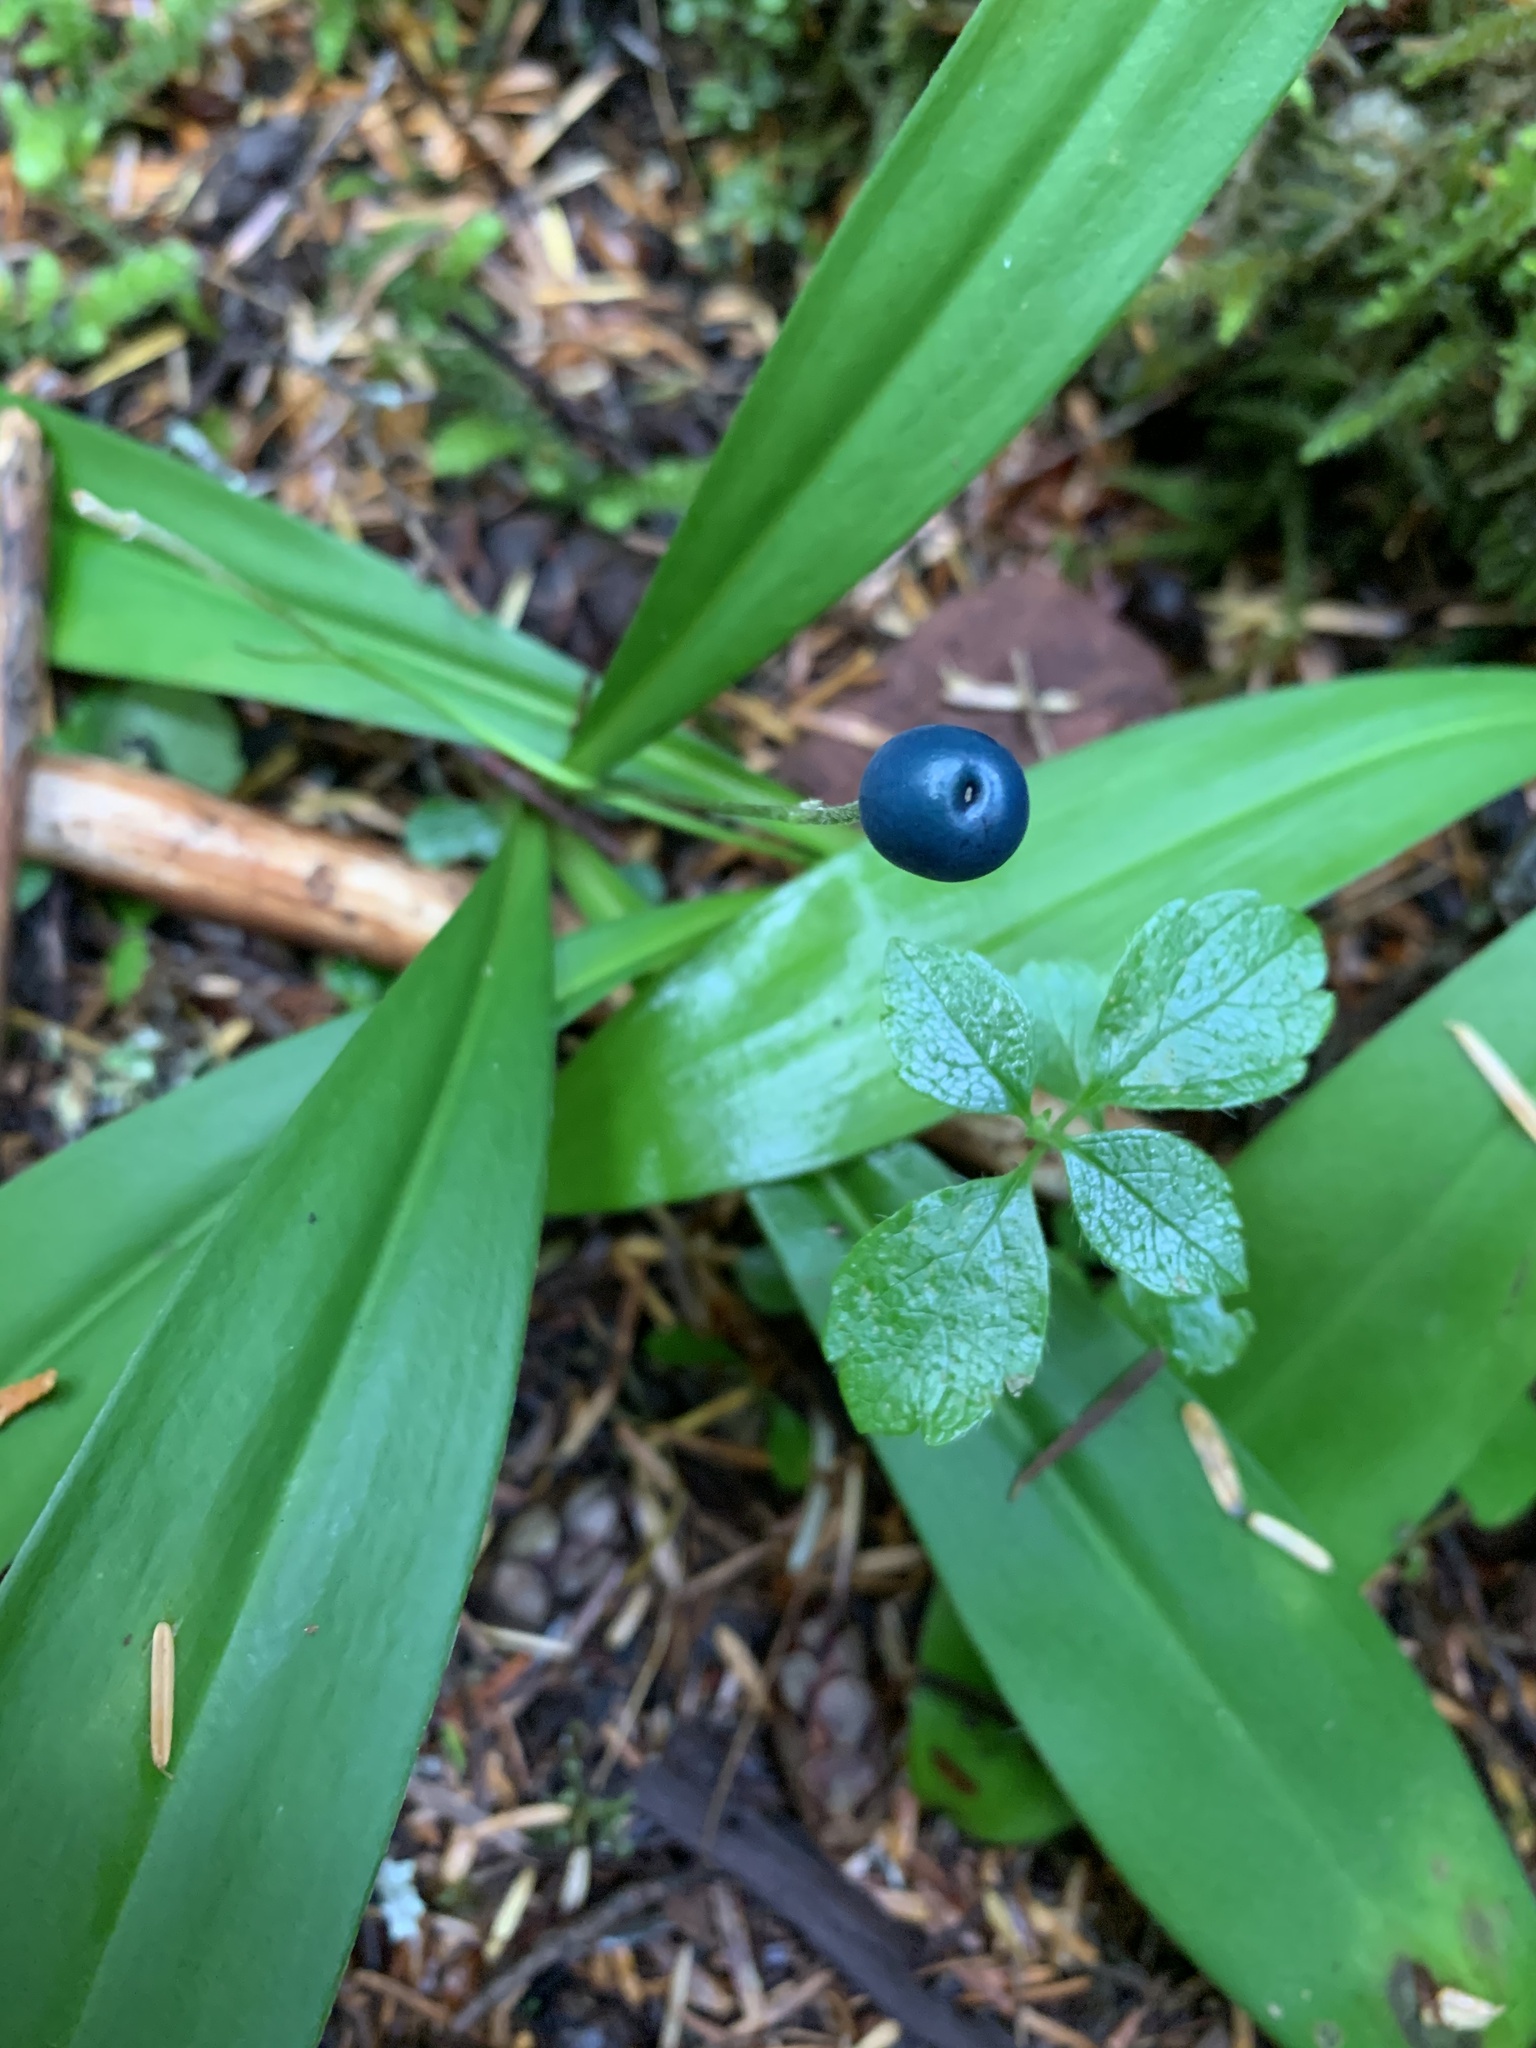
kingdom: Plantae
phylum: Tracheophyta
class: Liliopsida
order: Liliales
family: Liliaceae
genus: Clintonia
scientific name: Clintonia uniflora
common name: Queen's cup
